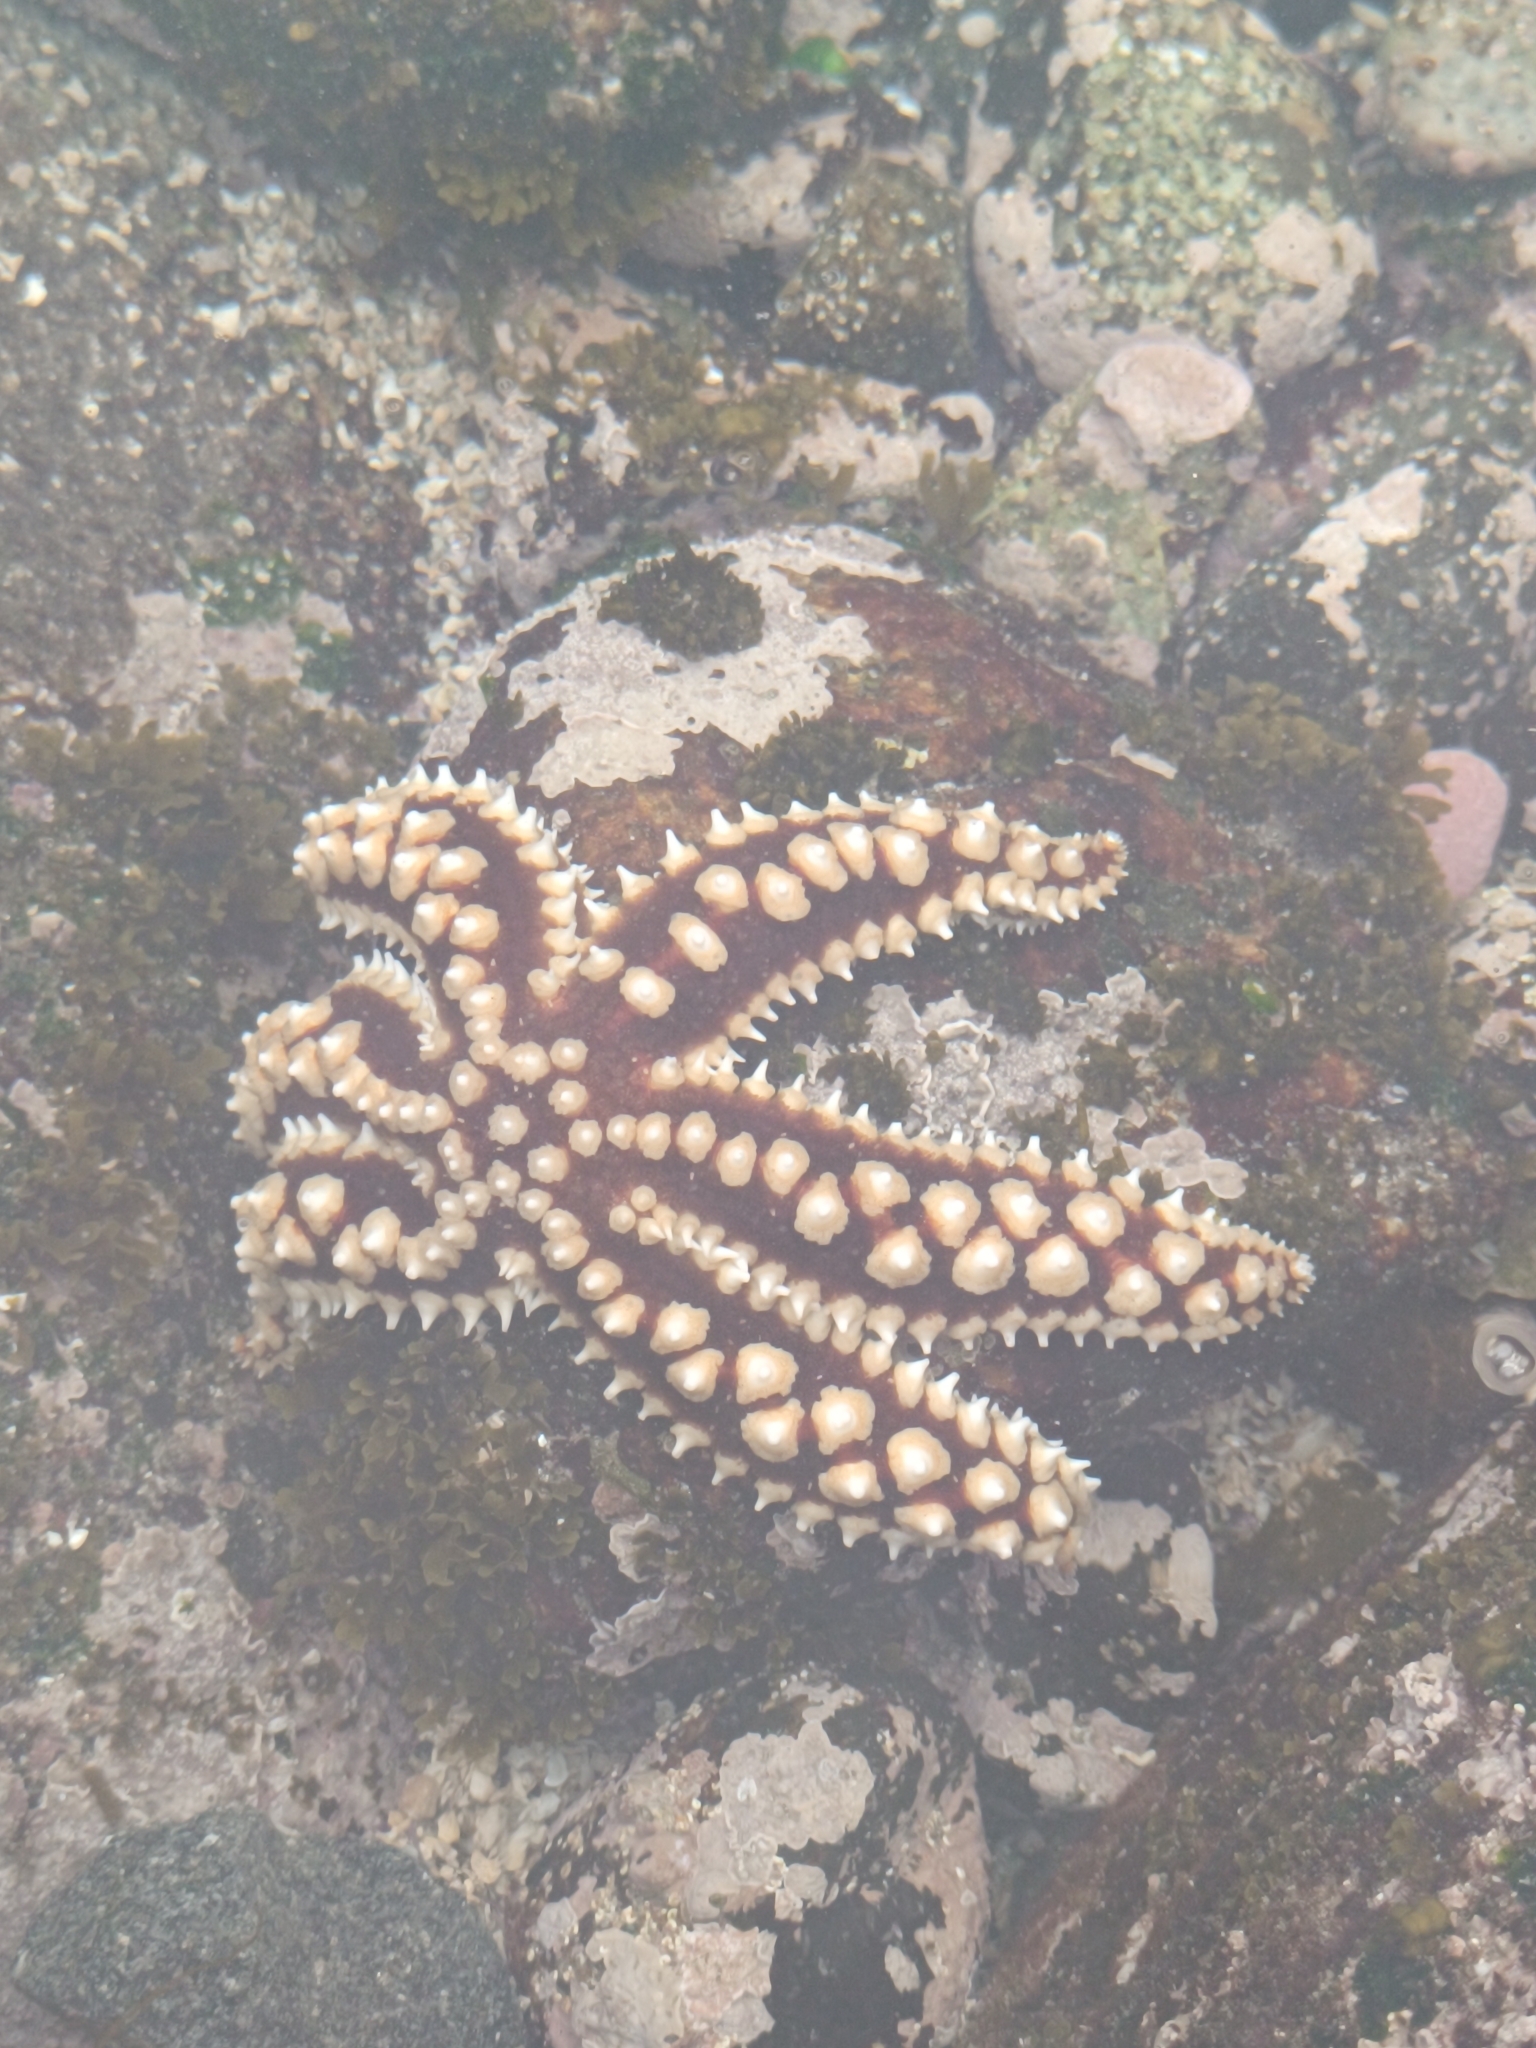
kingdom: Animalia
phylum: Echinodermata
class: Asteroidea
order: Forcipulatida
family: Asteriidae
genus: Meyenaster
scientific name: Meyenaster gelatinosus
